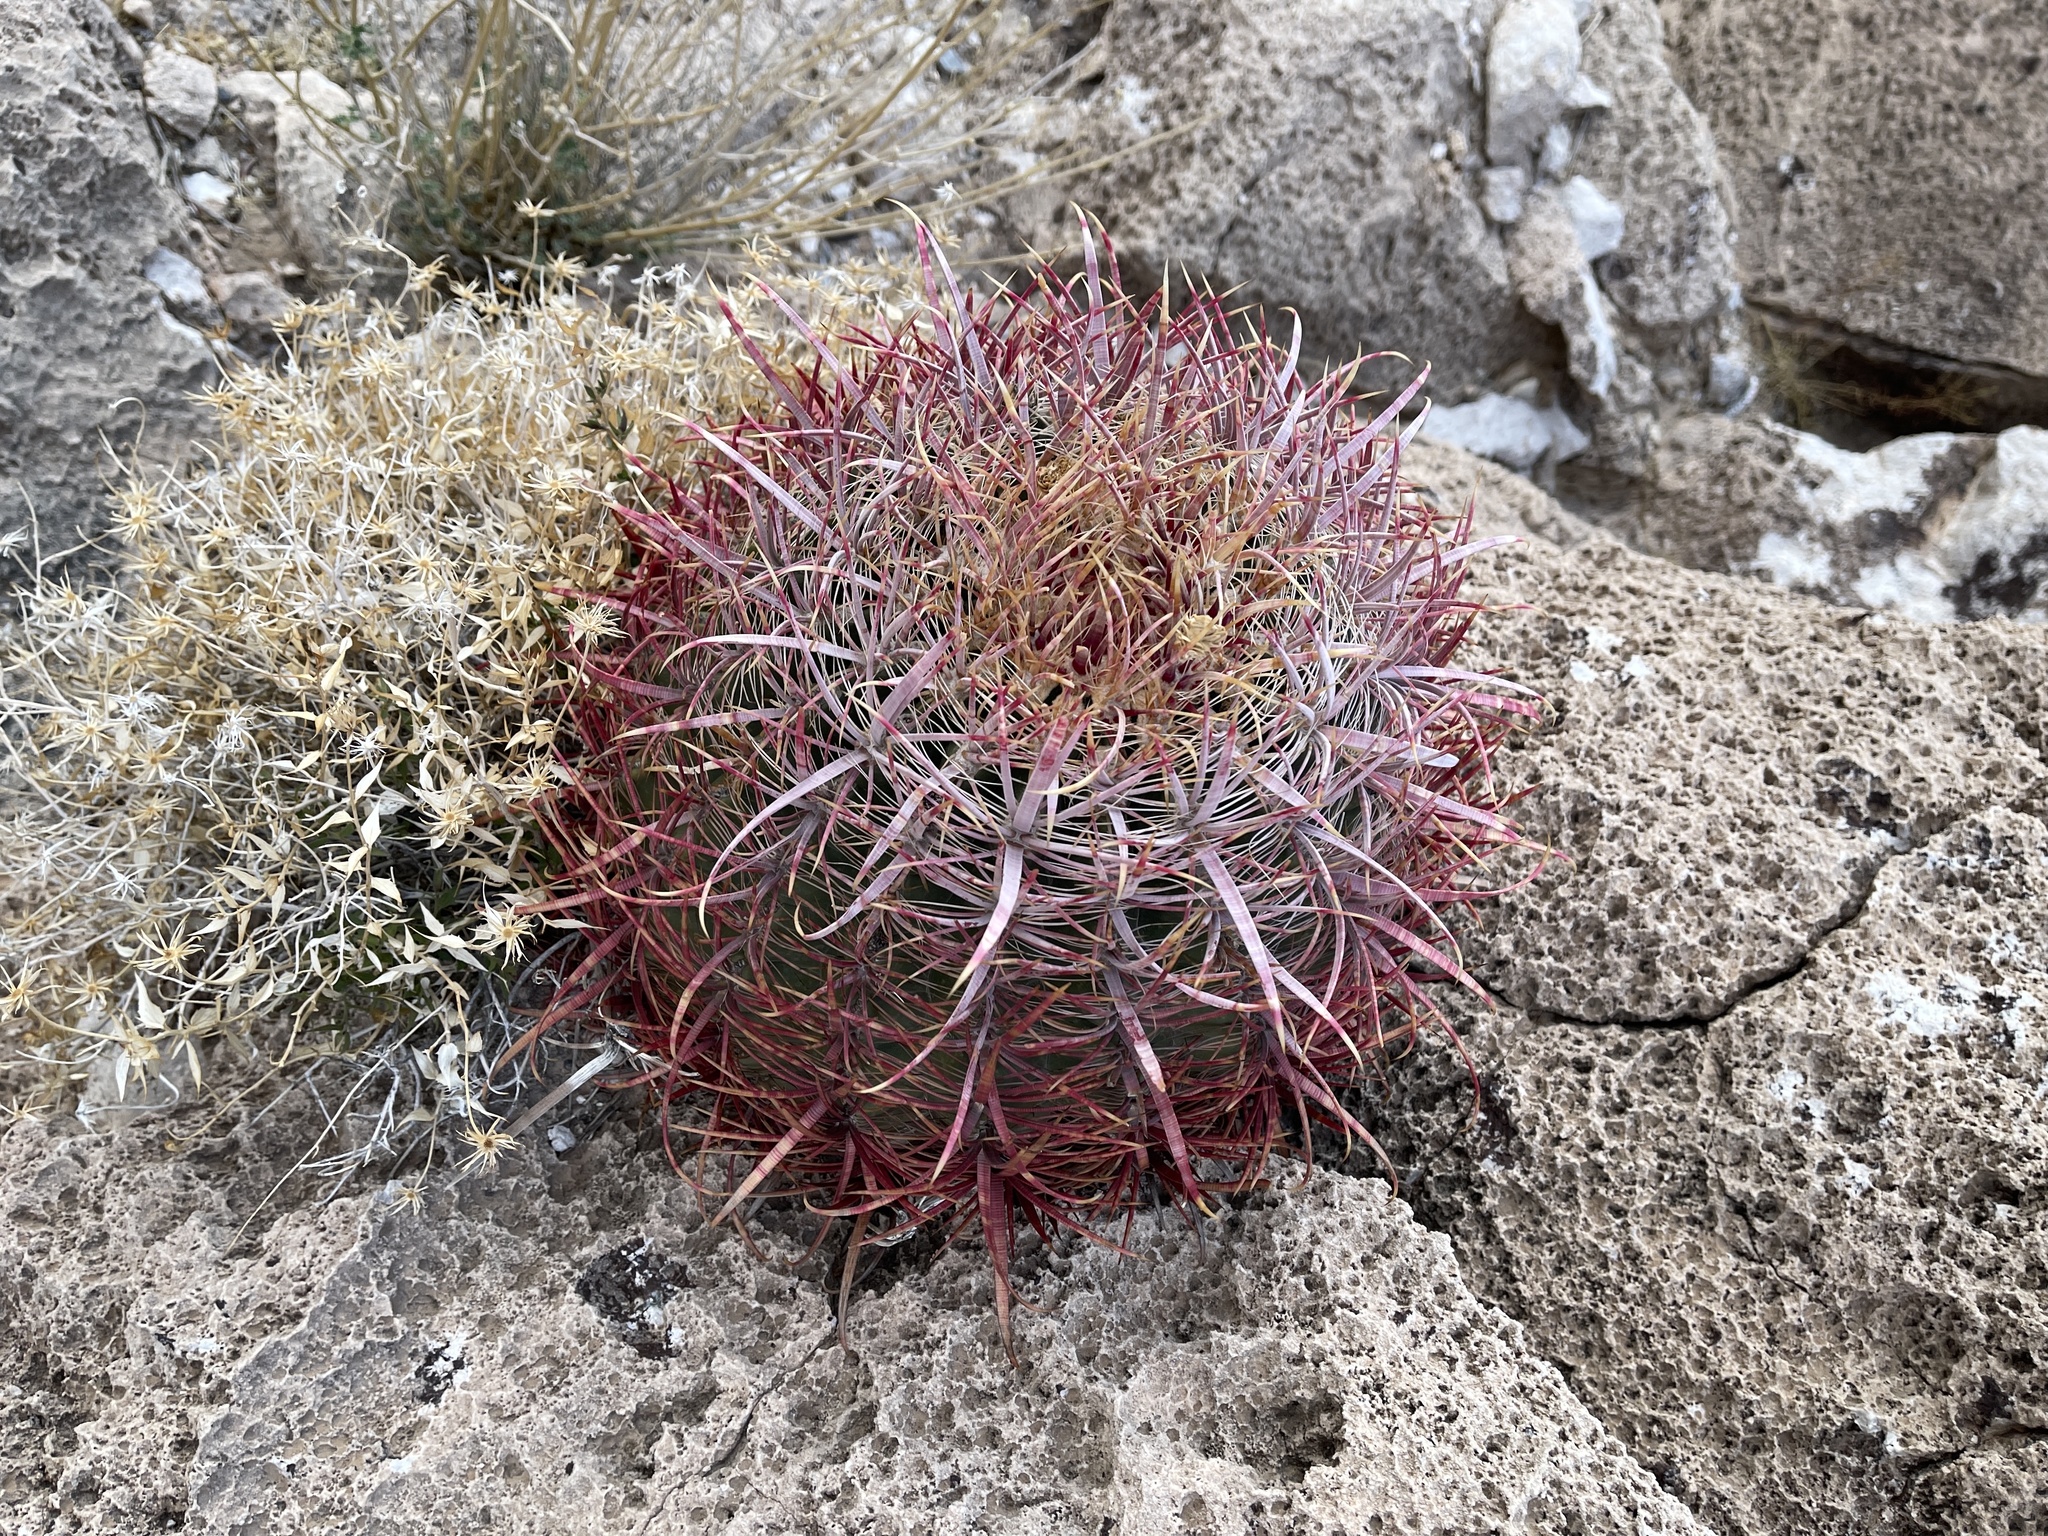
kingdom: Plantae
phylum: Tracheophyta
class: Magnoliopsida
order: Caryophyllales
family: Cactaceae
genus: Ferocactus
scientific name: Ferocactus cylindraceus
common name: California barrel cactus
